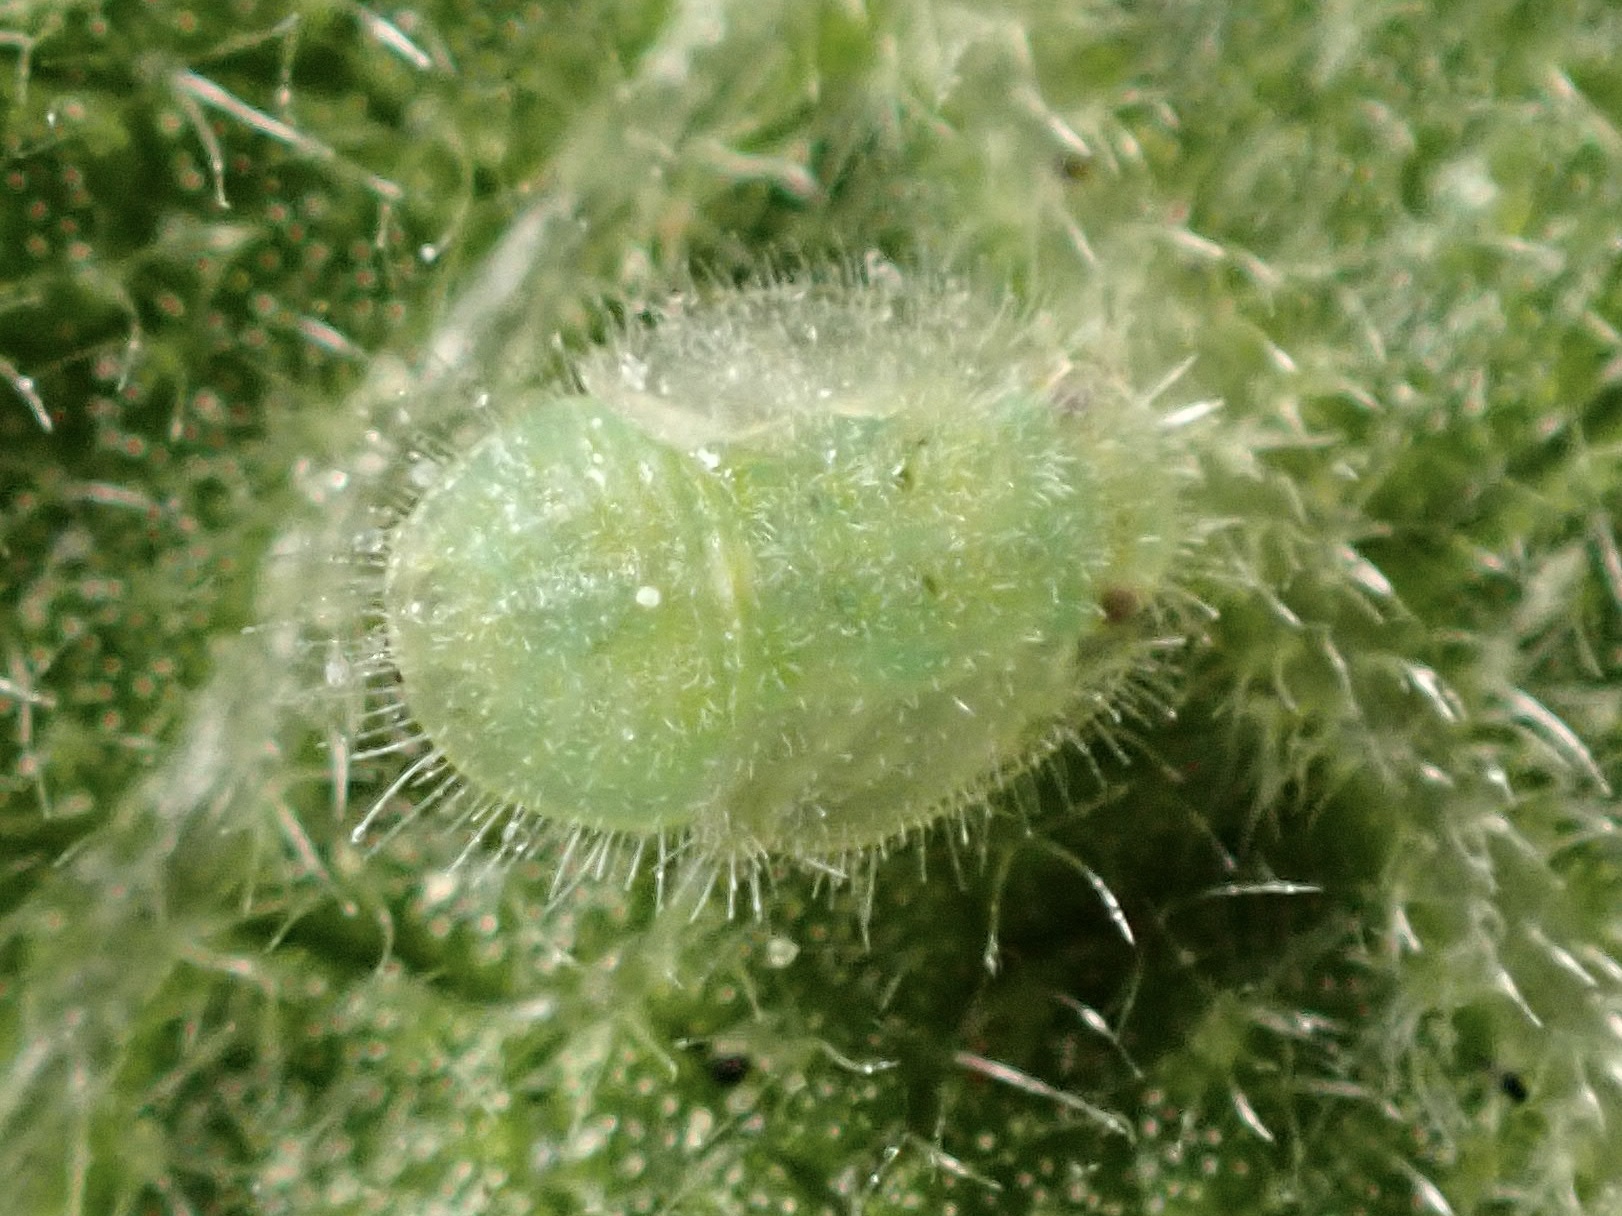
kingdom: Animalia
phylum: Arthropoda
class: Insecta
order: Hemiptera
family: Triozidae
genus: Bactericera
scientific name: Bactericera lavaterae
